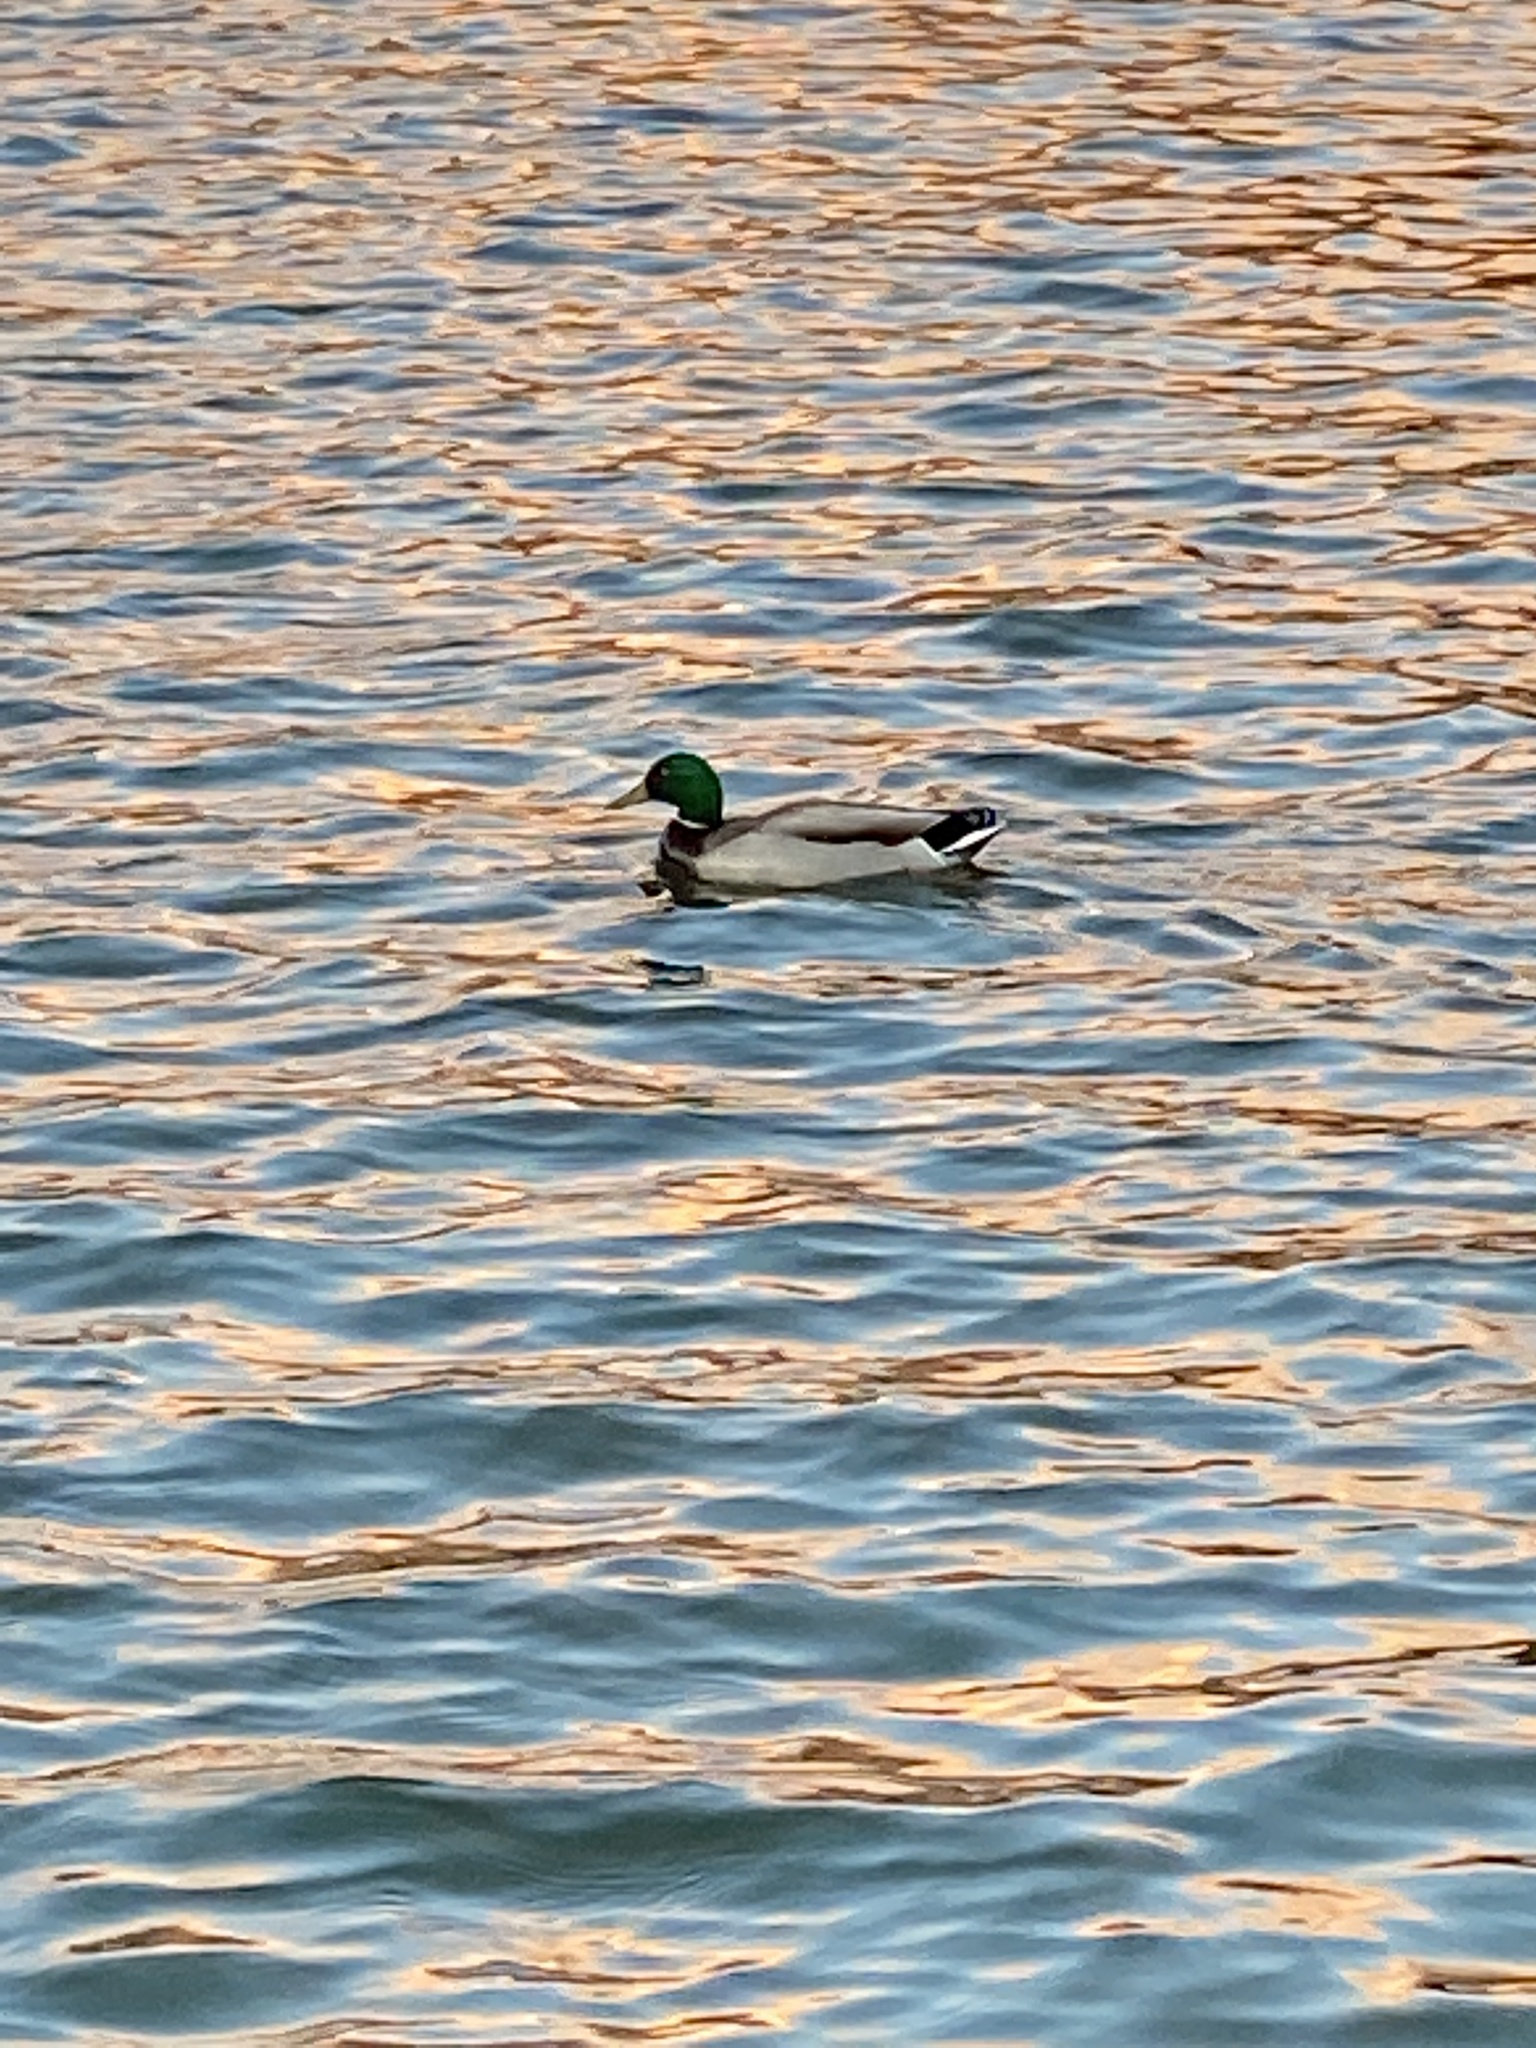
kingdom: Animalia
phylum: Chordata
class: Aves
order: Anseriformes
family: Anatidae
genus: Anas
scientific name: Anas platyrhynchos
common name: Mallard
